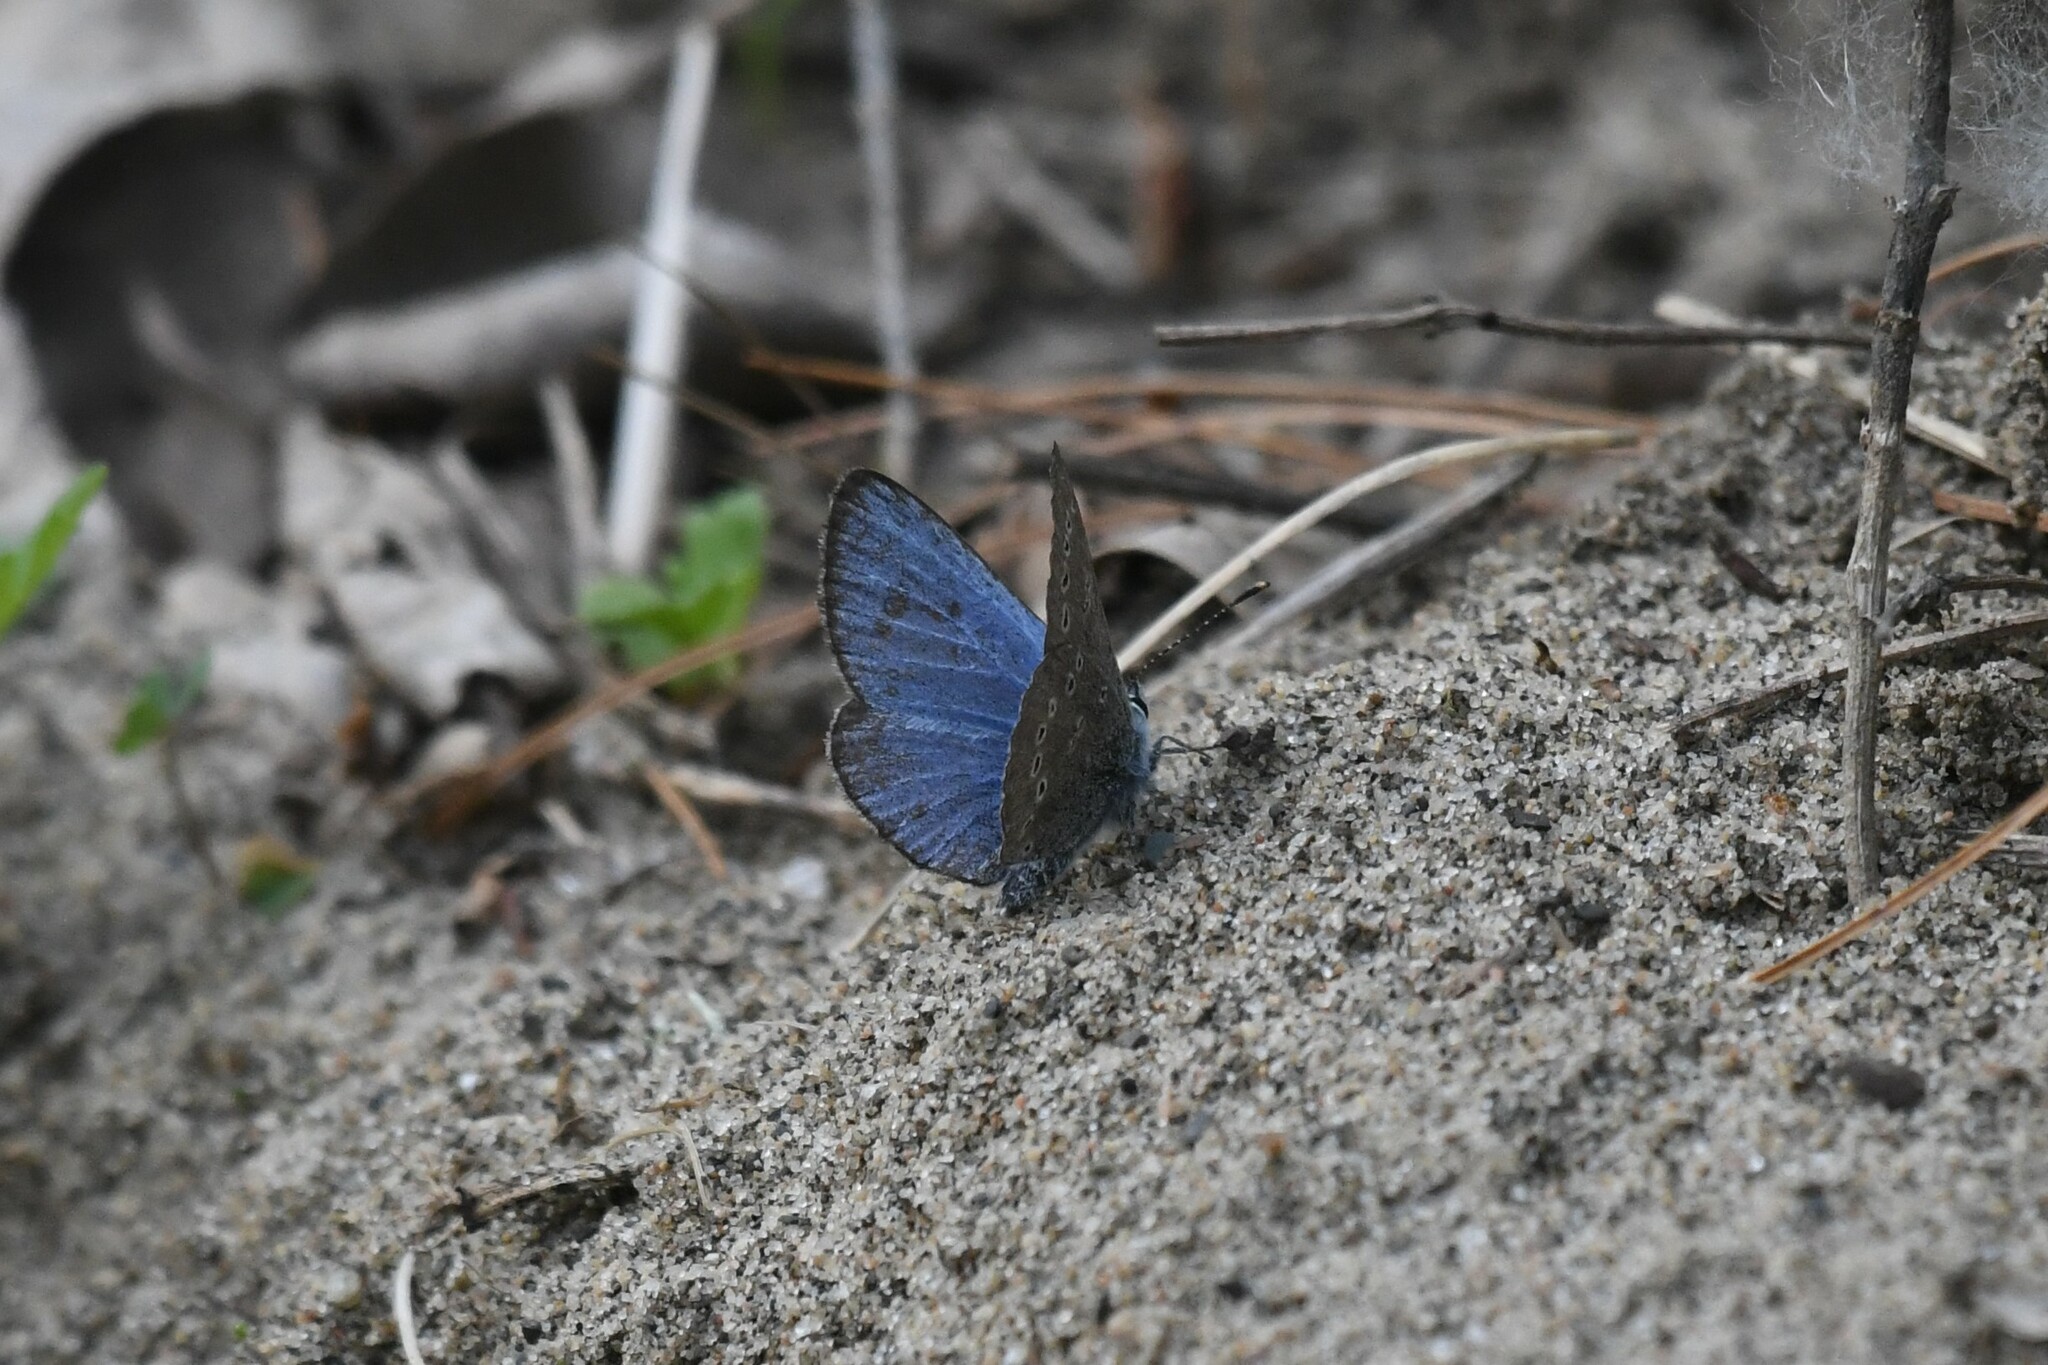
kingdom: Animalia
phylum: Arthropoda
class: Insecta
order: Lepidoptera
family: Lycaenidae
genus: Glaucopsyche
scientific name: Glaucopsyche lygdamus
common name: Silvery blue
